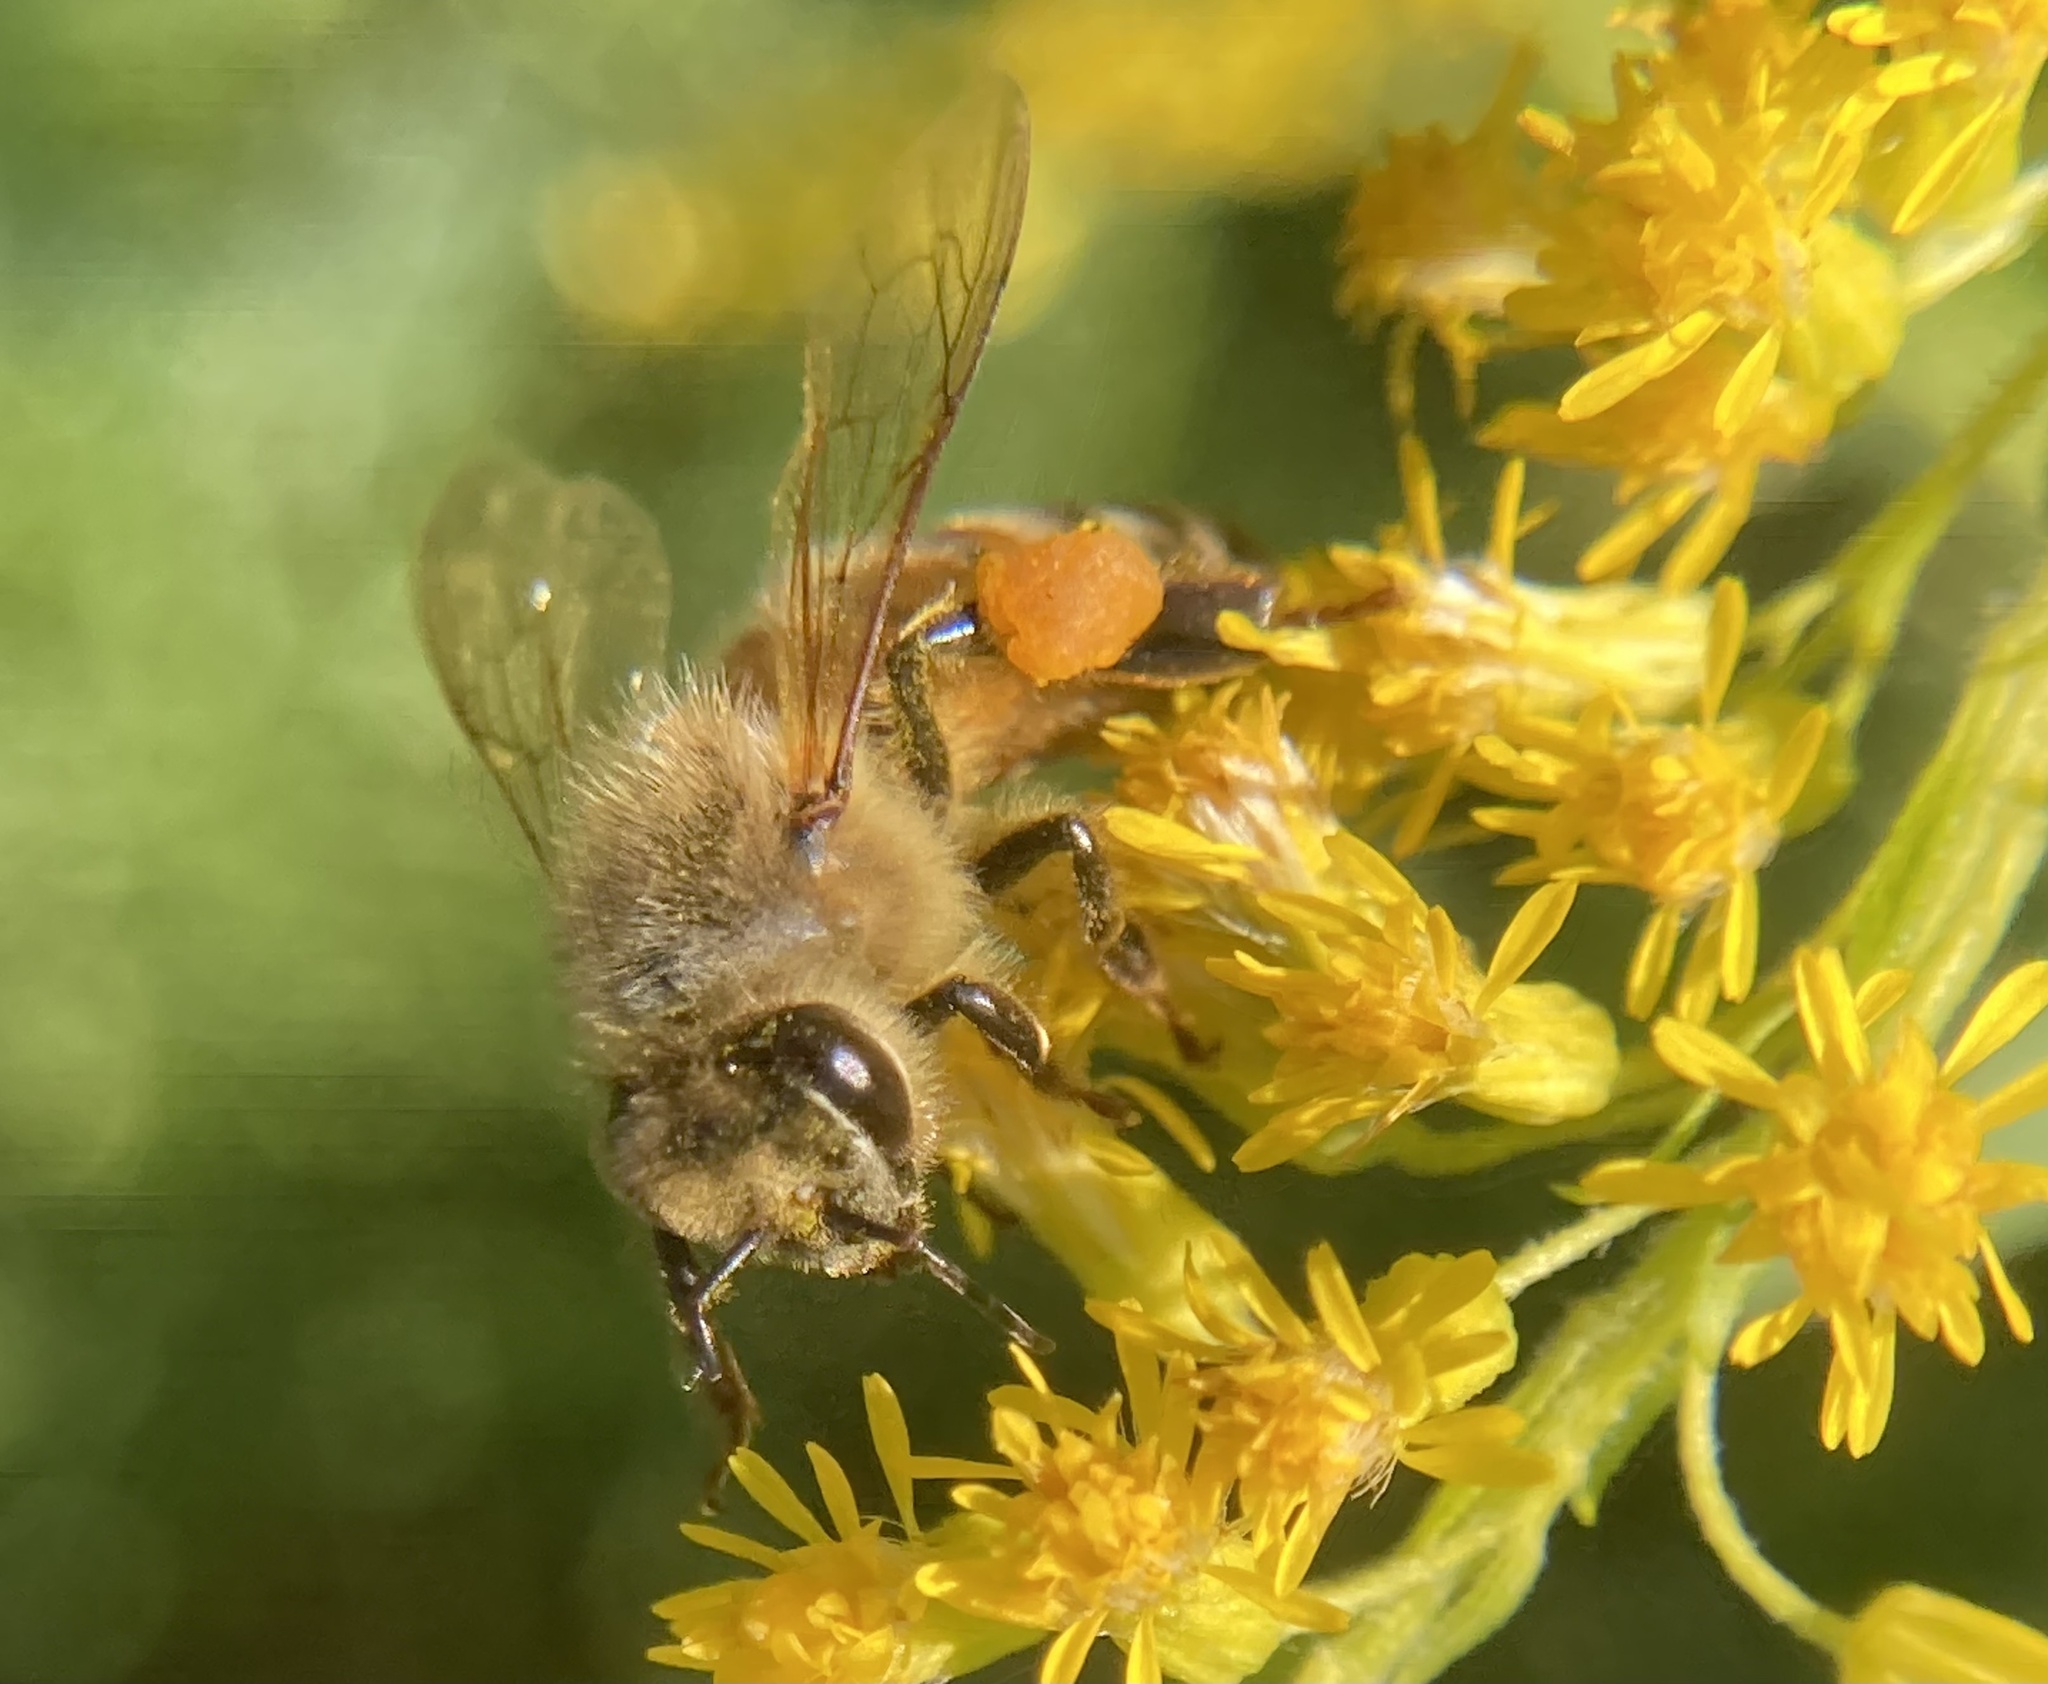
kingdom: Animalia
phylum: Arthropoda
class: Insecta
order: Hymenoptera
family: Apidae
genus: Apis
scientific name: Apis mellifera
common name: Honey bee
